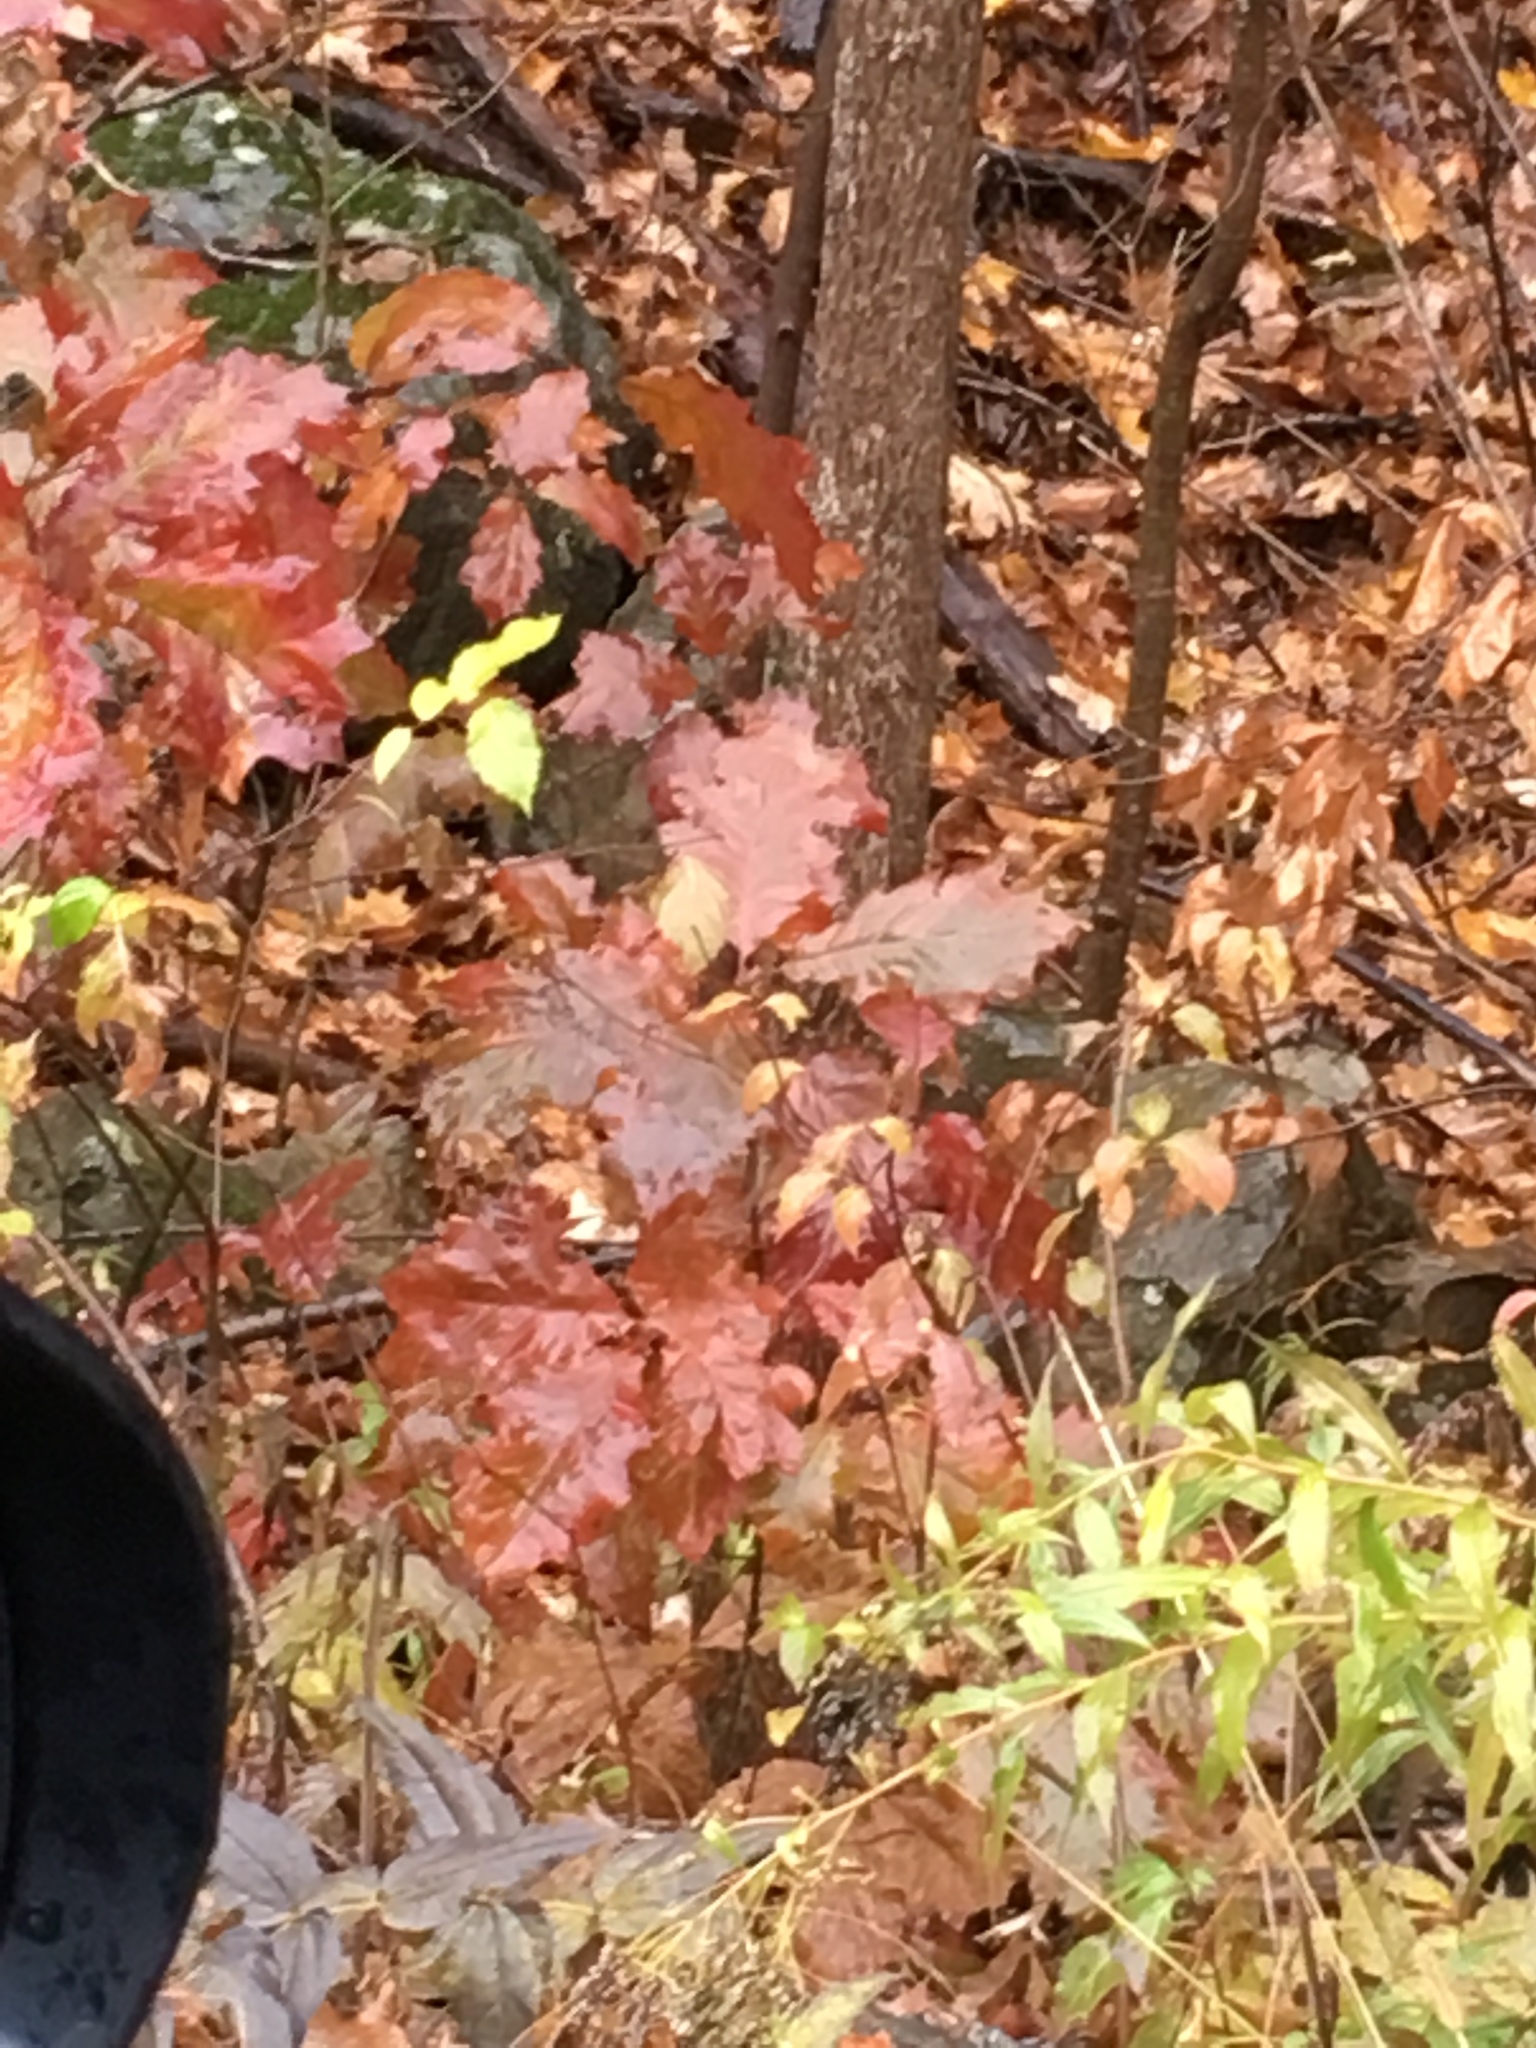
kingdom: Plantae
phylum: Tracheophyta
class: Magnoliopsida
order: Fagales
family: Fagaceae
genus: Quercus
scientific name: Quercus rubra
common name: Red oak
